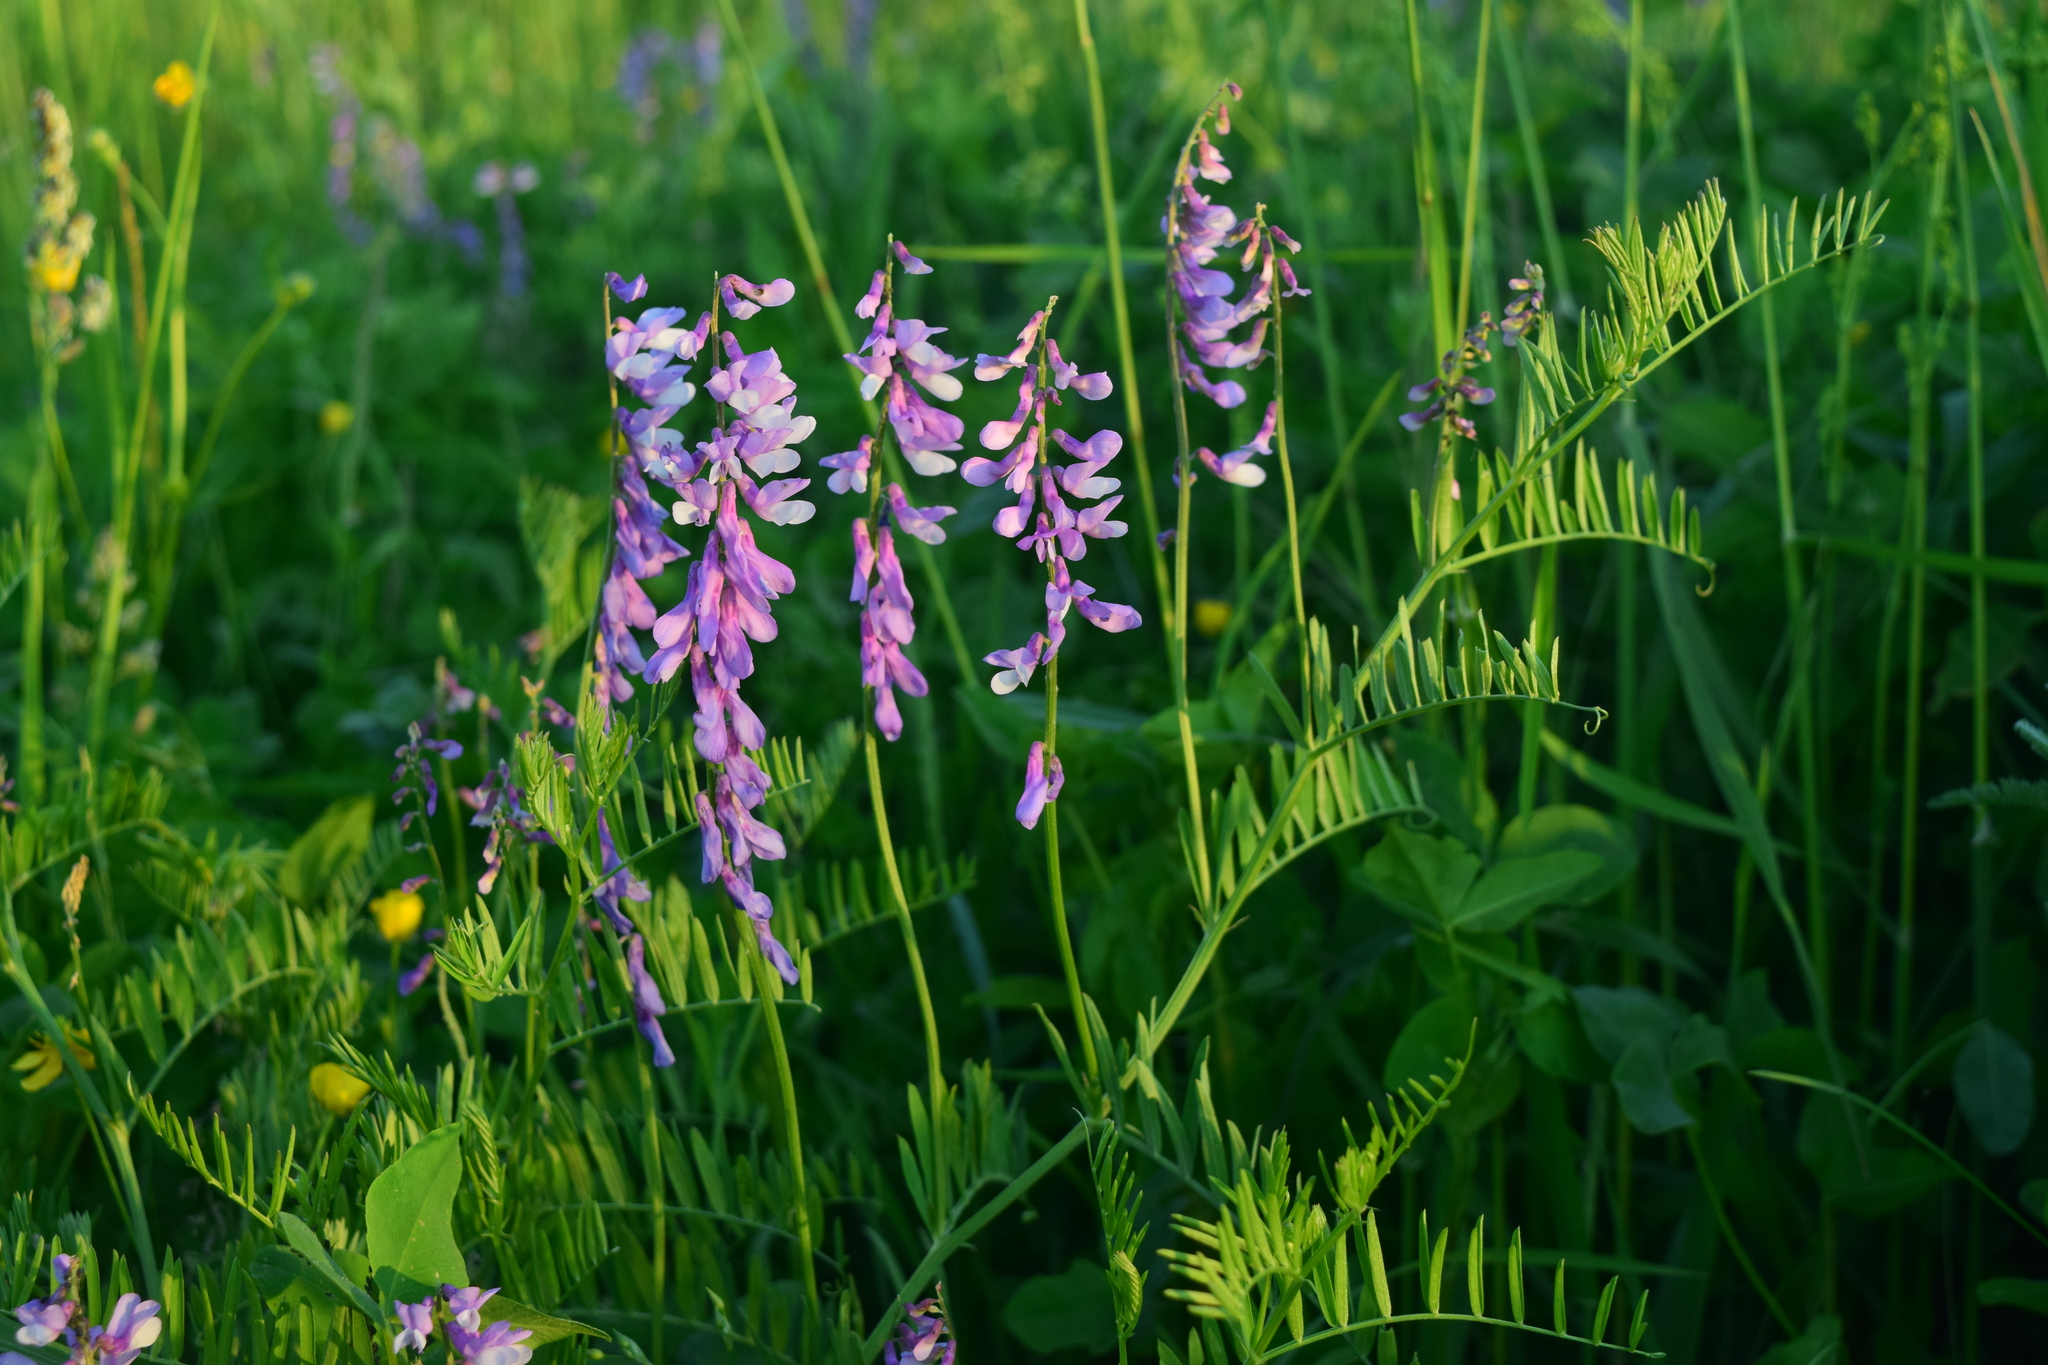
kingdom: Plantae
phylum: Tracheophyta
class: Magnoliopsida
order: Fabales
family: Fabaceae
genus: Vicia
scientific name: Vicia tenuifolia
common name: Fine-leaved vetch
